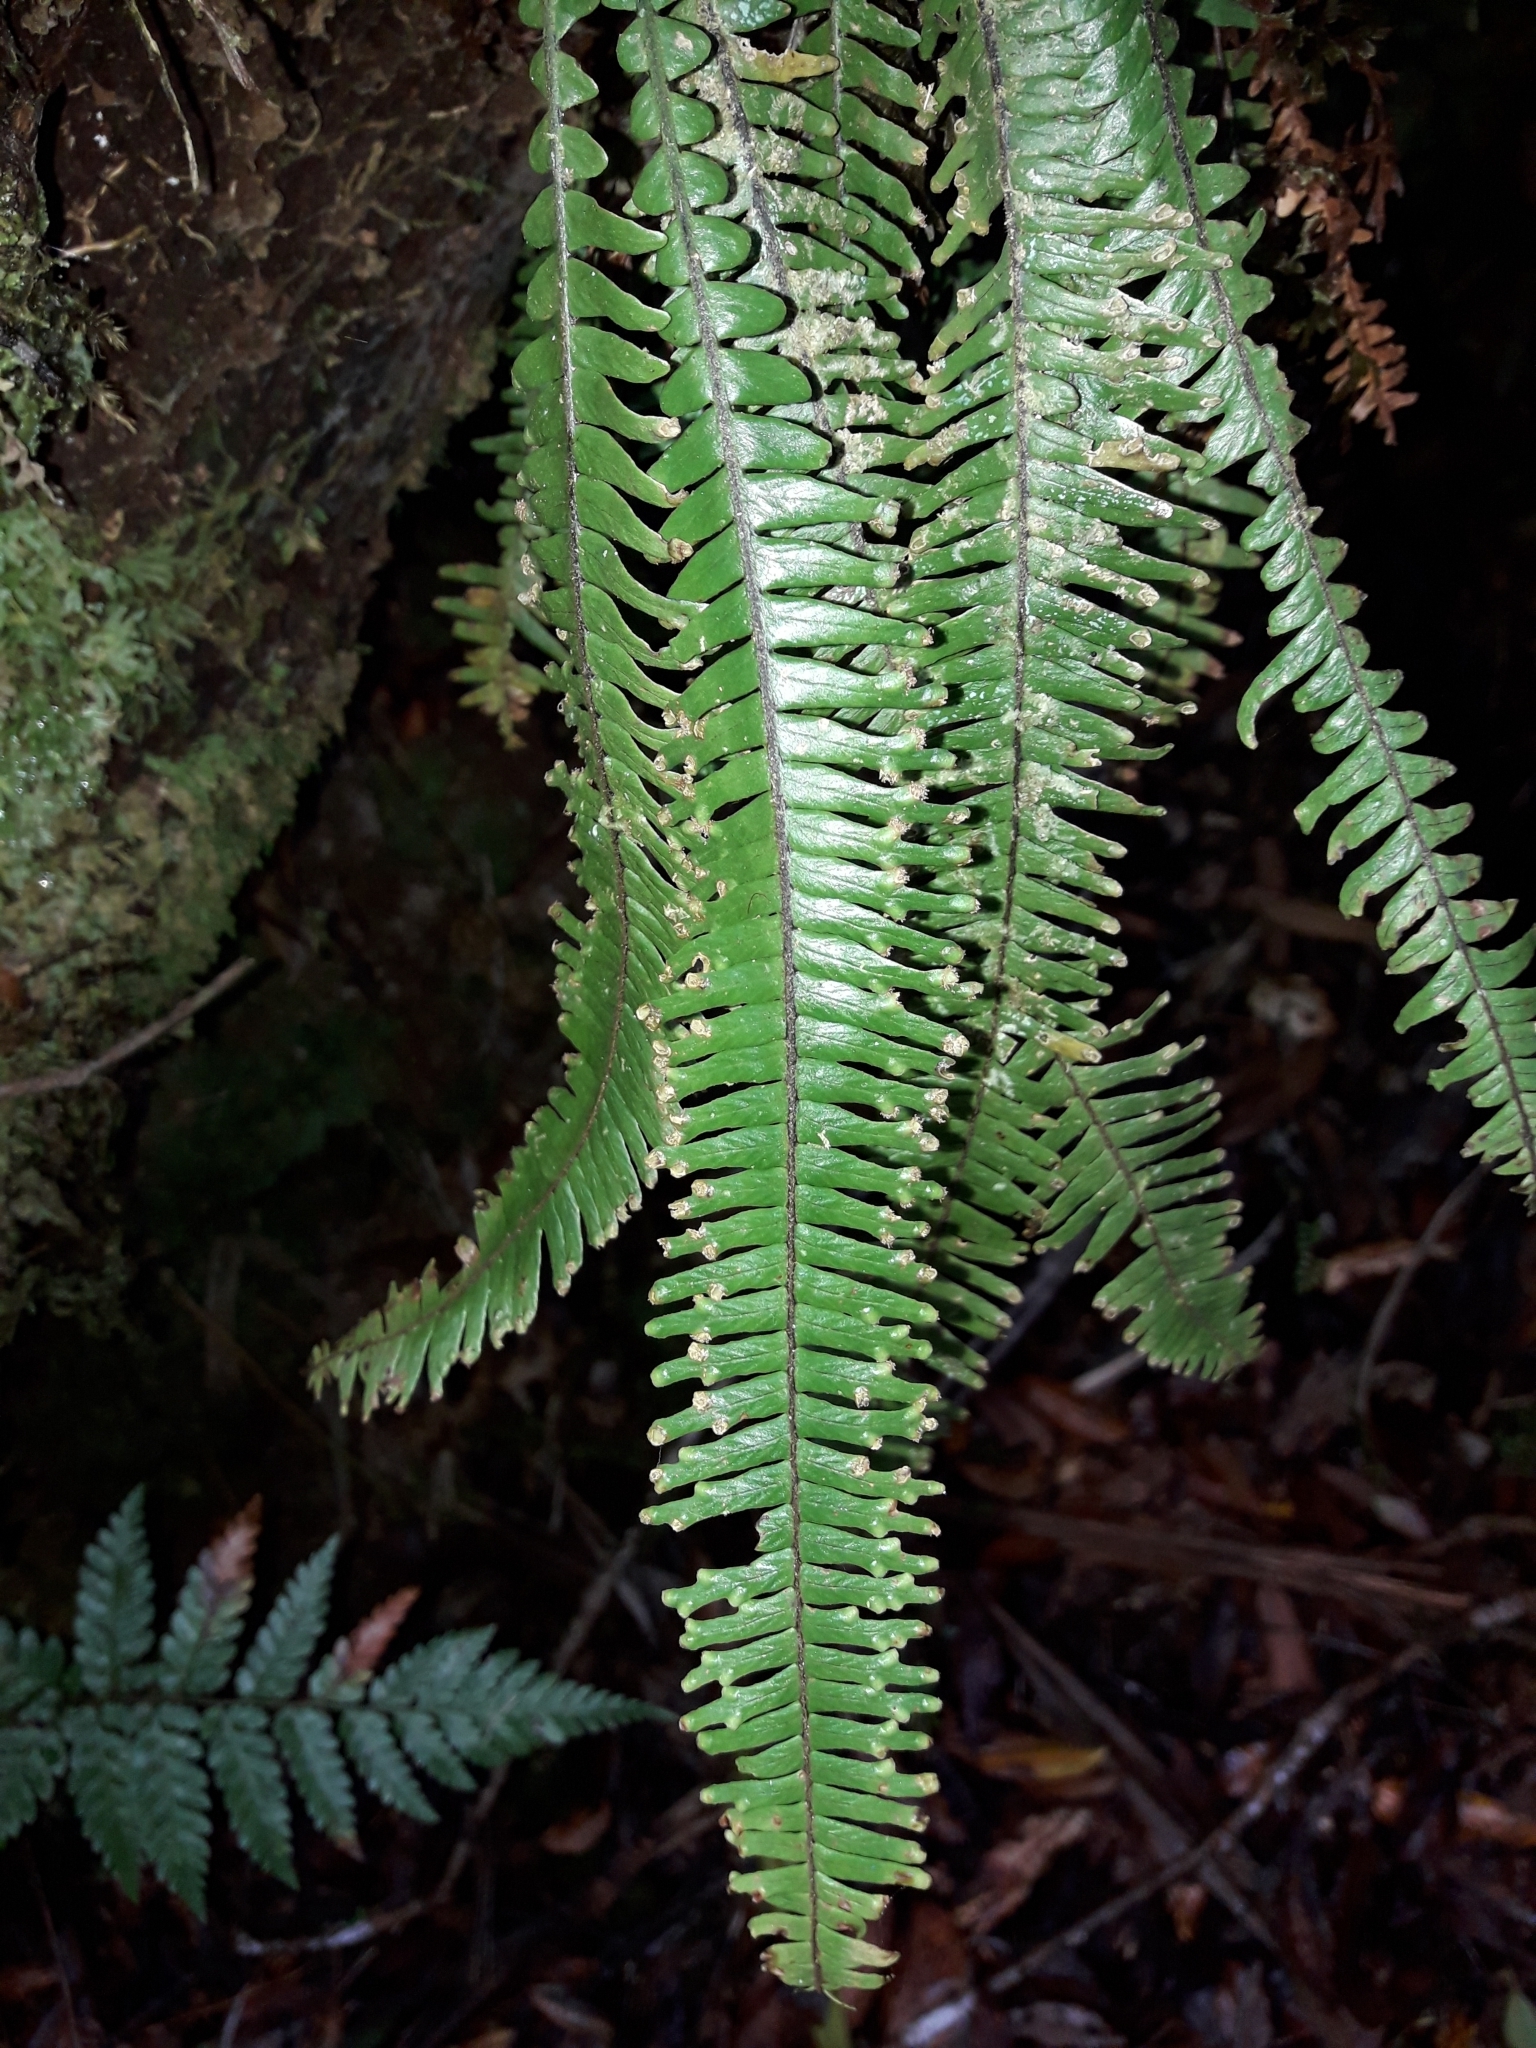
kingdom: Plantae
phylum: Tracheophyta
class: Polypodiopsida
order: Polypodiales
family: Polypodiaceae
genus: Prosaptia
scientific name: Prosaptia contigua
